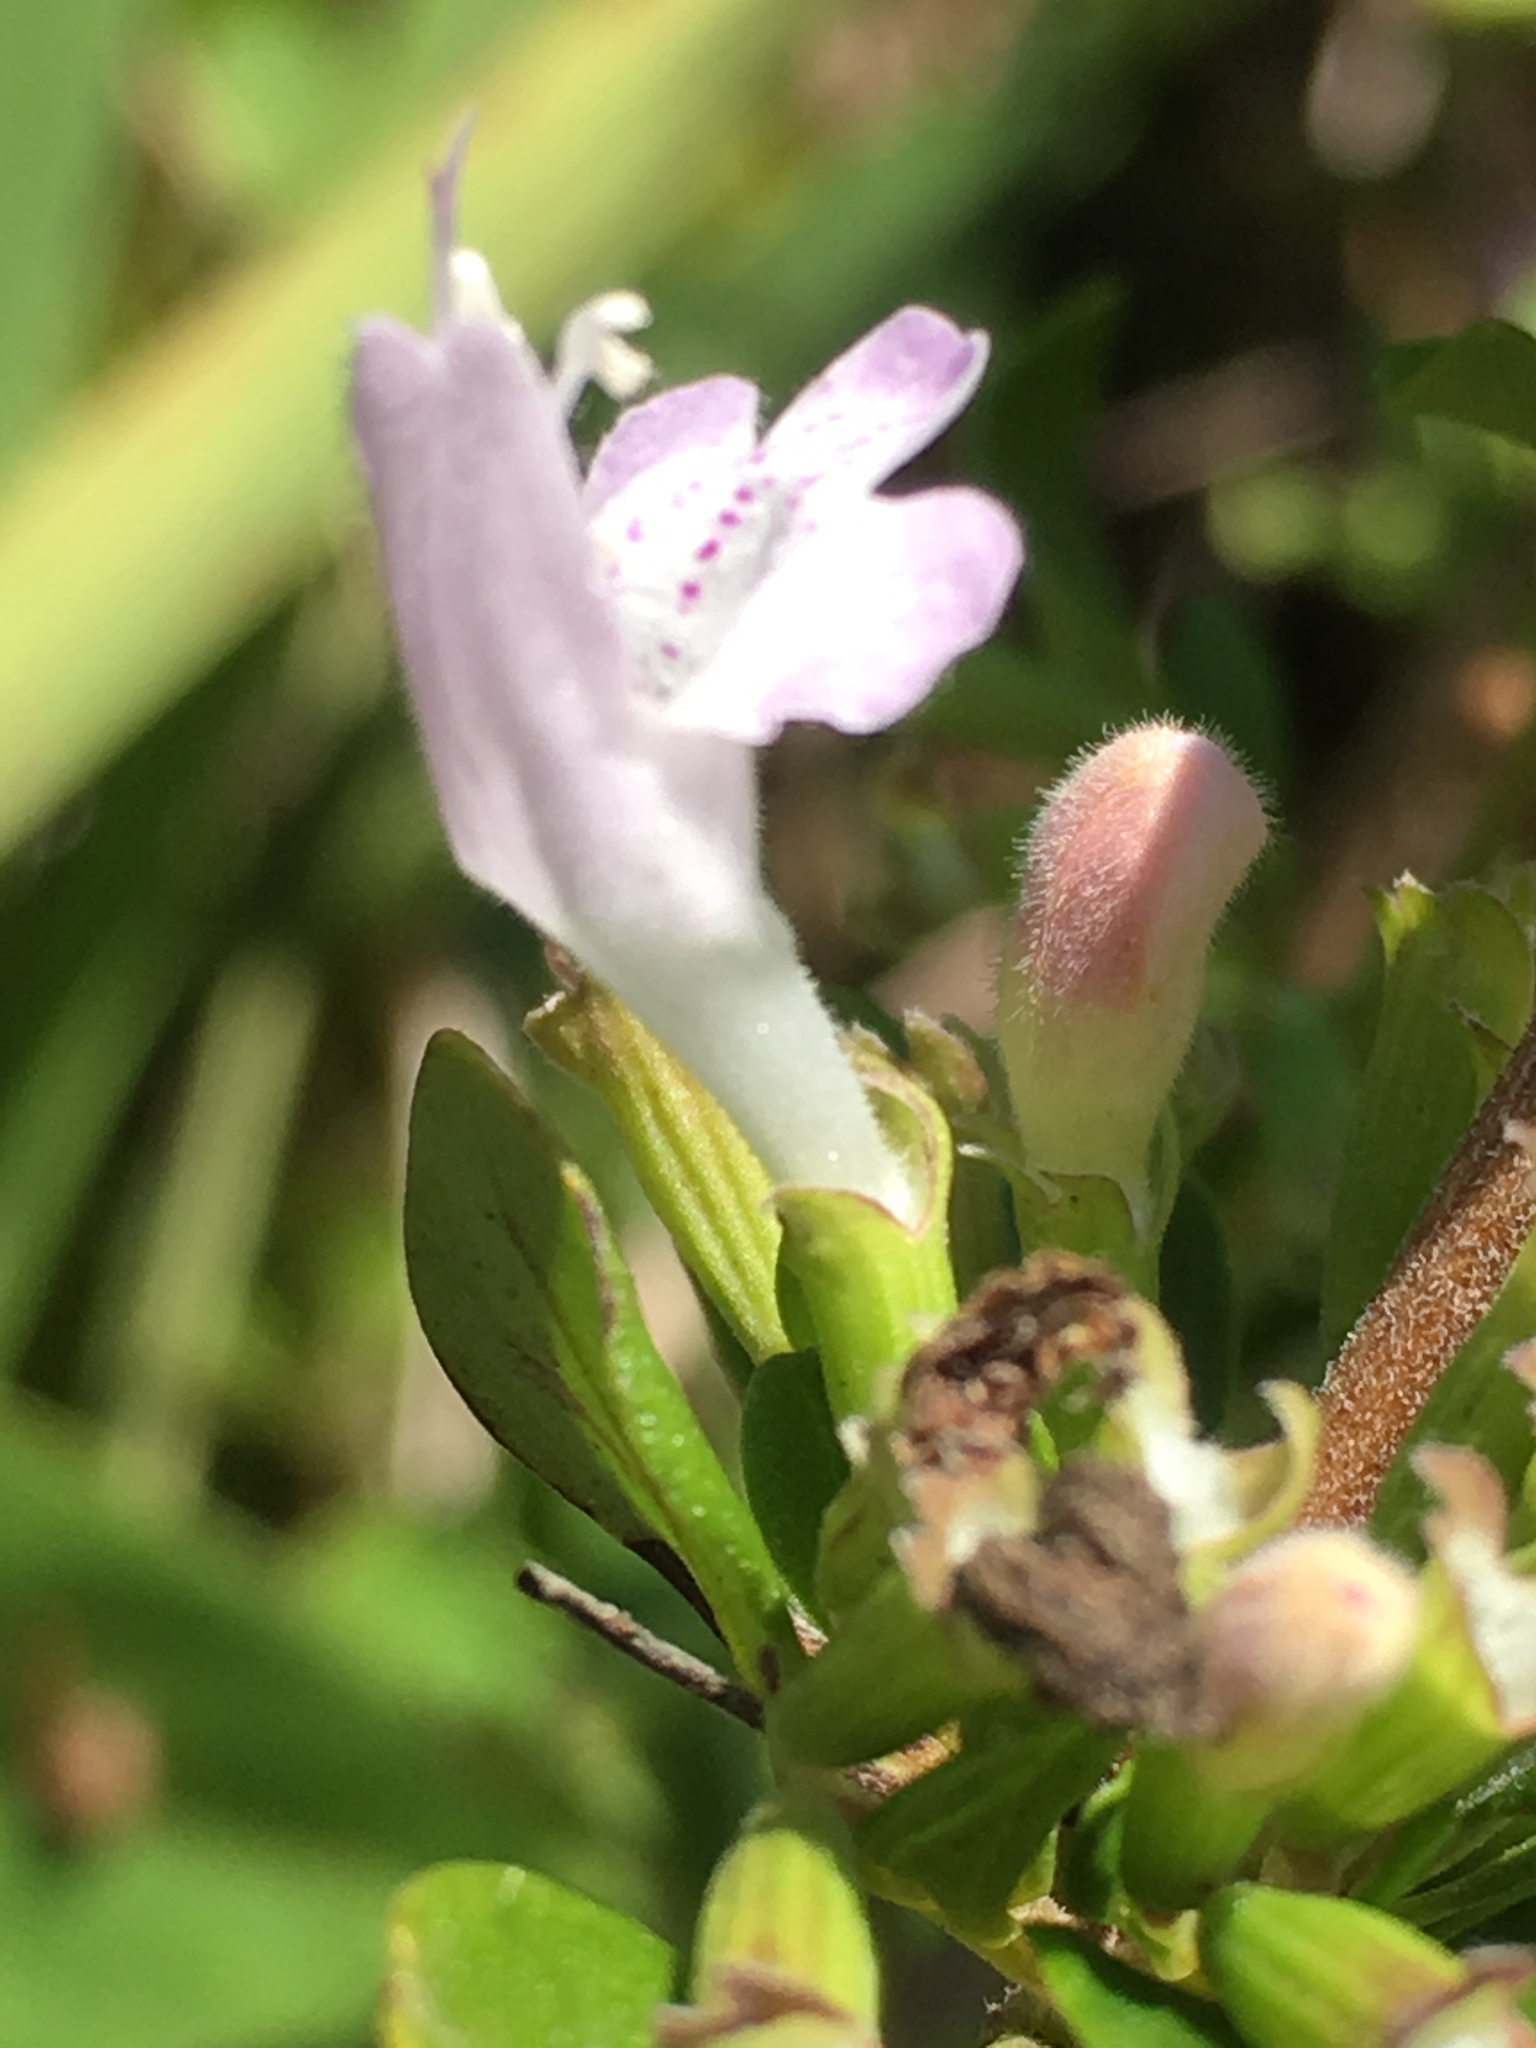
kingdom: Plantae
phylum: Tracheophyta
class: Magnoliopsida
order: Lamiales
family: Lamiaceae
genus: Clinopodium
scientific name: Clinopodium carolinianum
